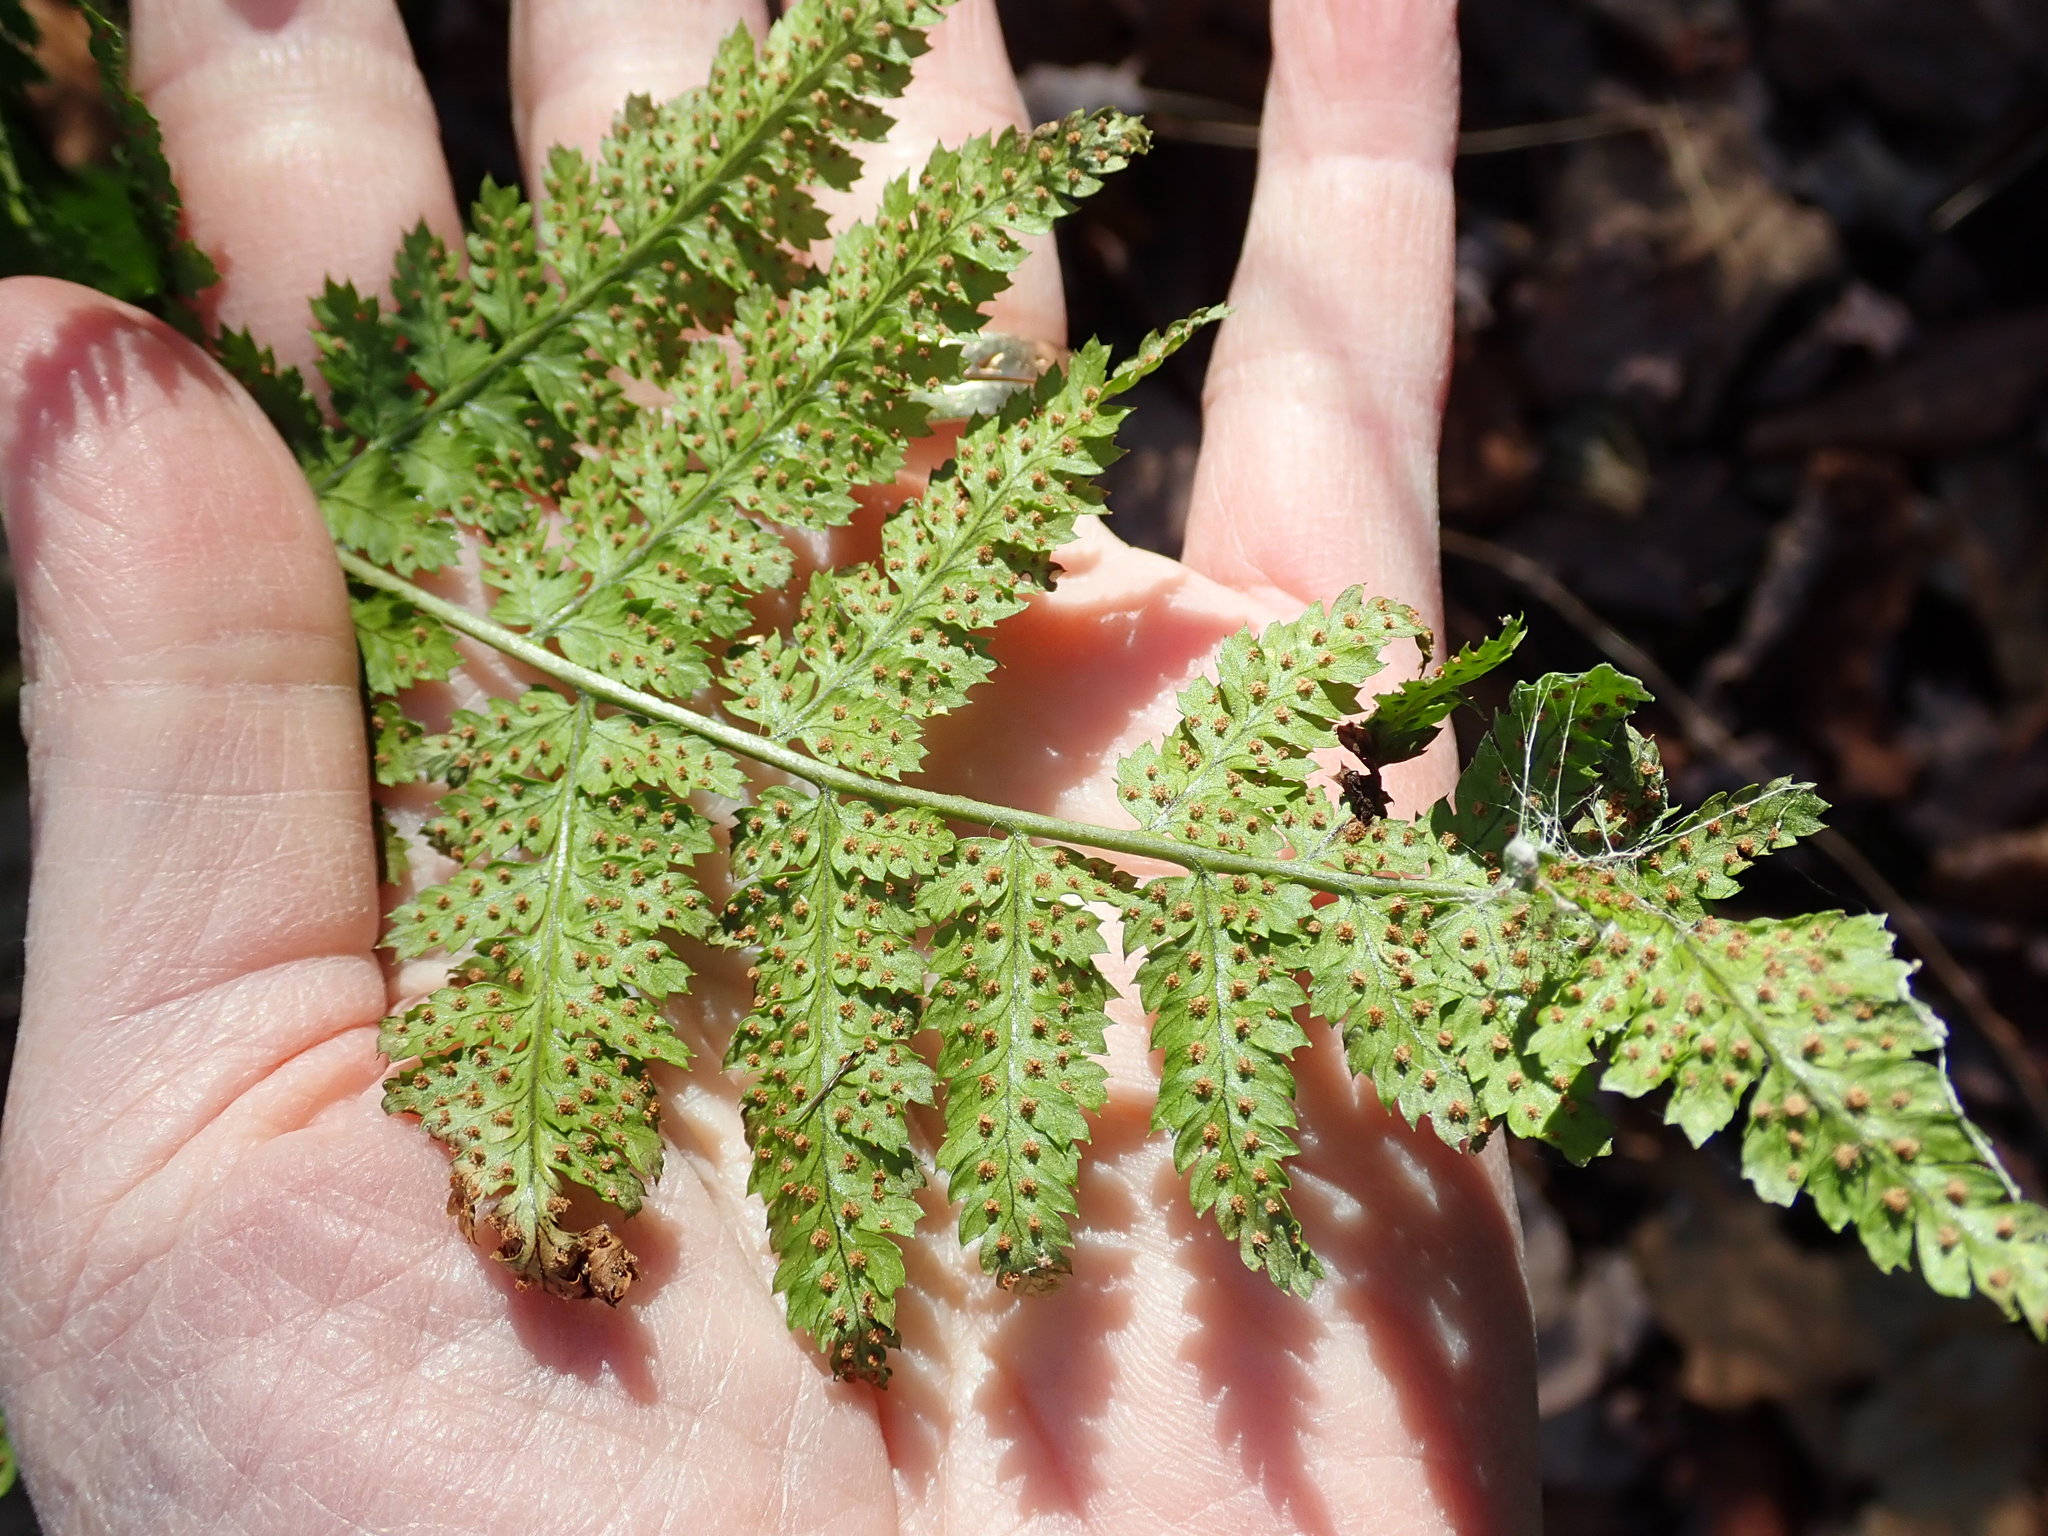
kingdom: Plantae
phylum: Tracheophyta
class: Polypodiopsida
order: Polypodiales
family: Dryopteridaceae
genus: Dryopteris
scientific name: Dryopteris intermedia
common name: Evergreen wood fern
